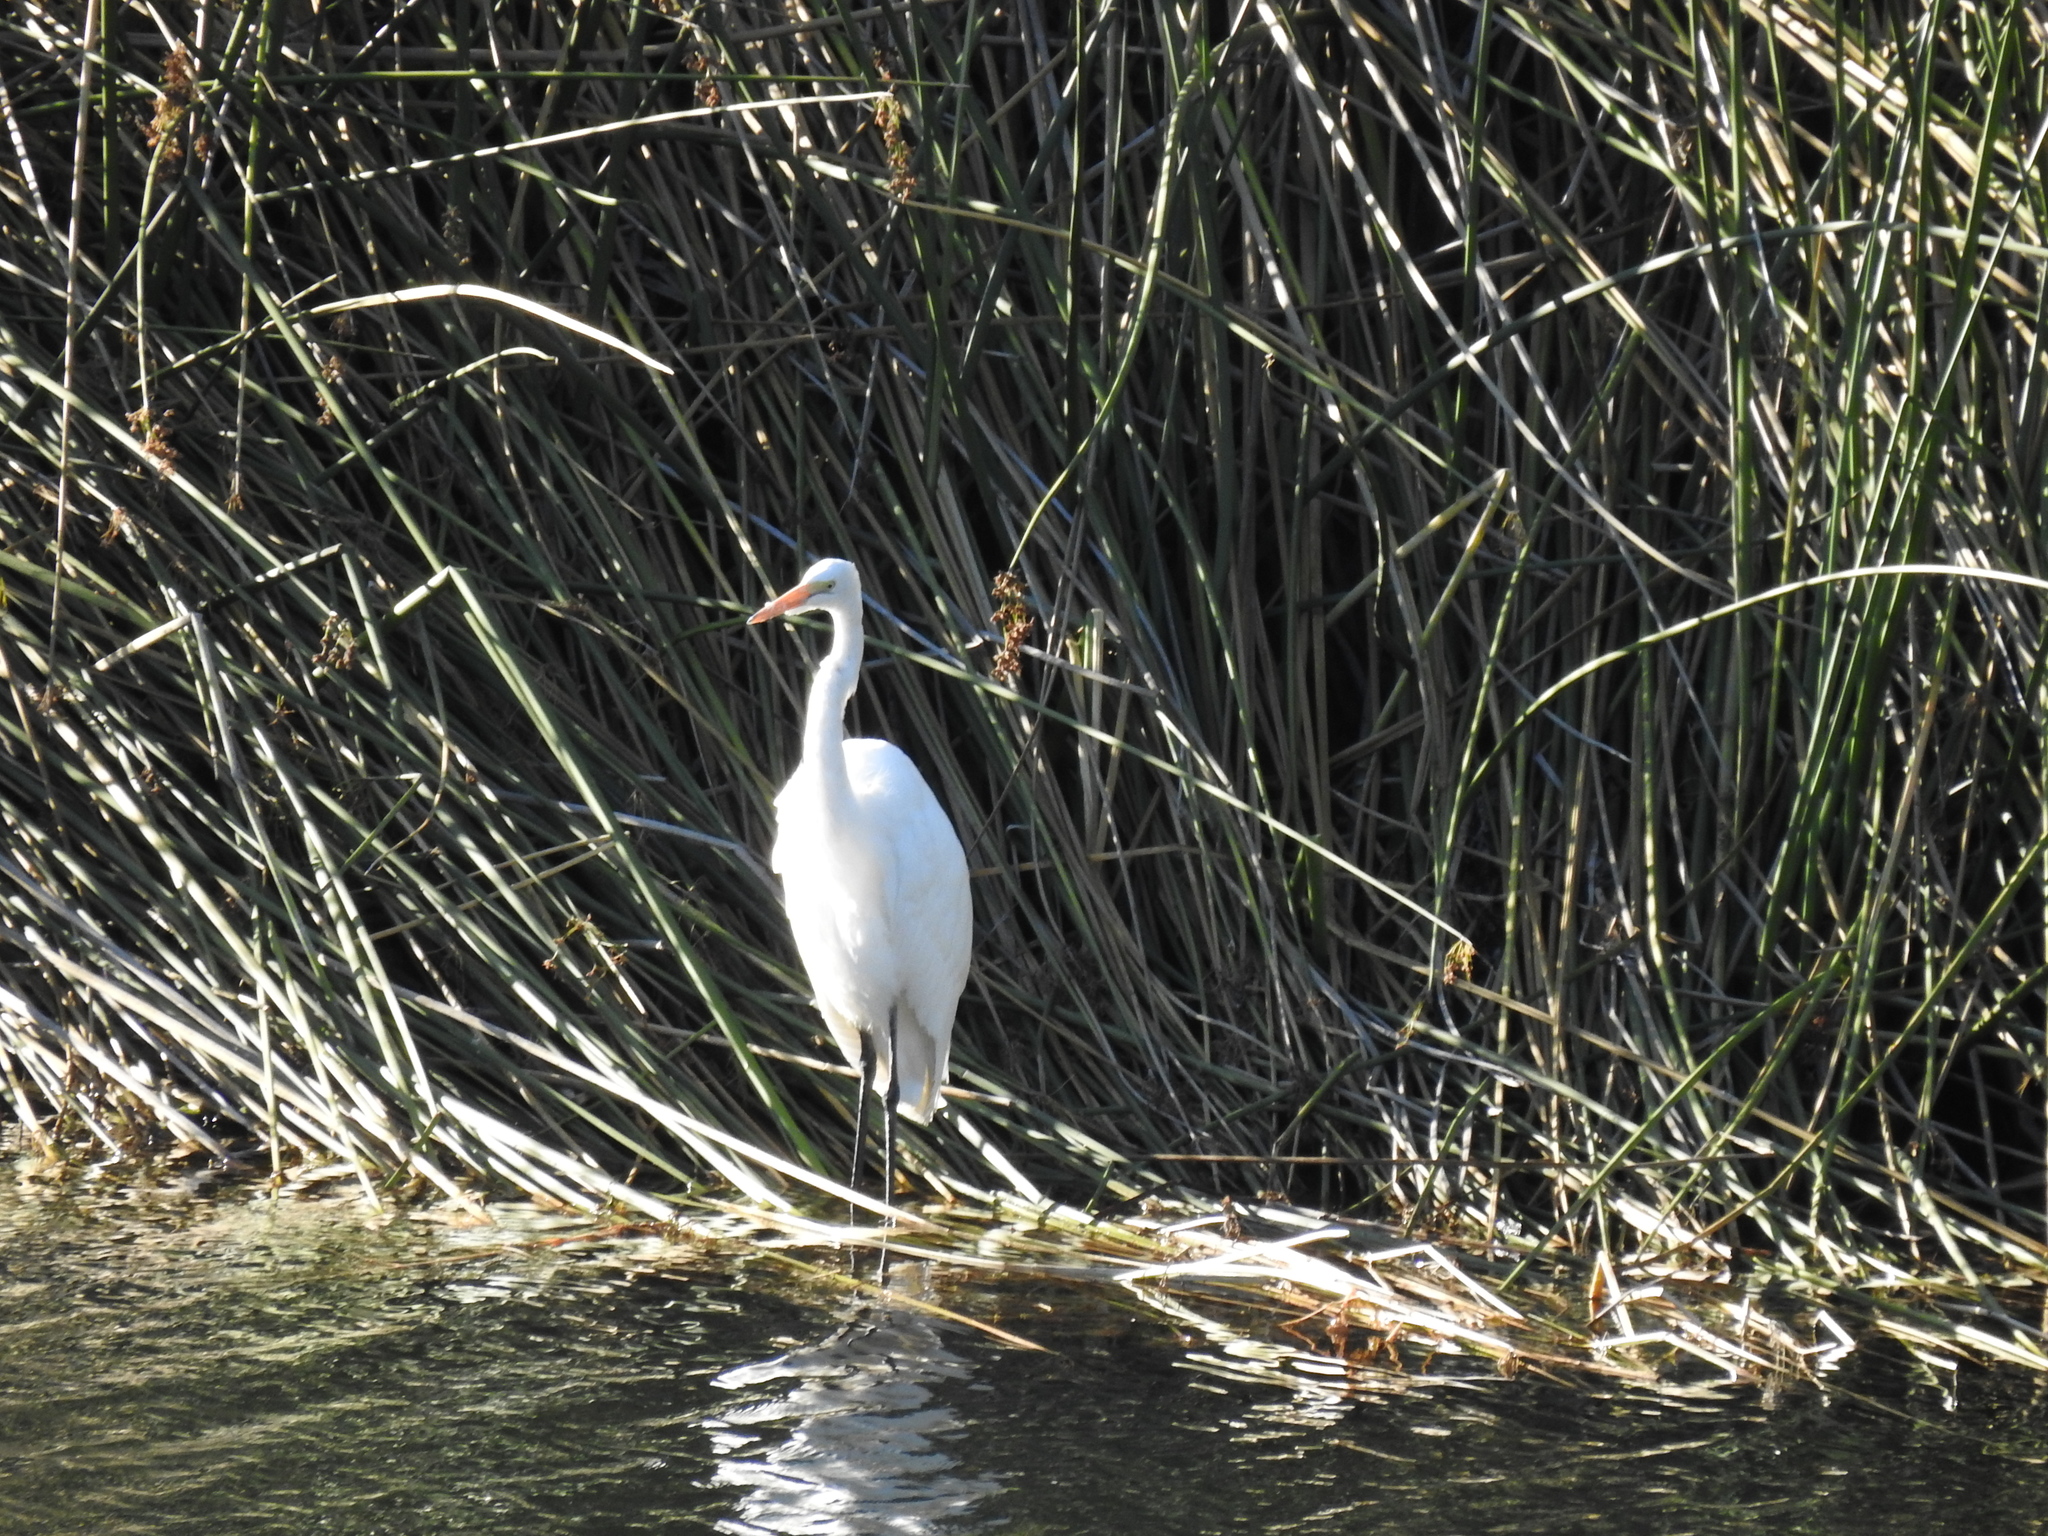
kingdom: Animalia
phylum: Chordata
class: Aves
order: Pelecaniformes
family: Ardeidae
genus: Ardea
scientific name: Ardea alba
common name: Great egret
